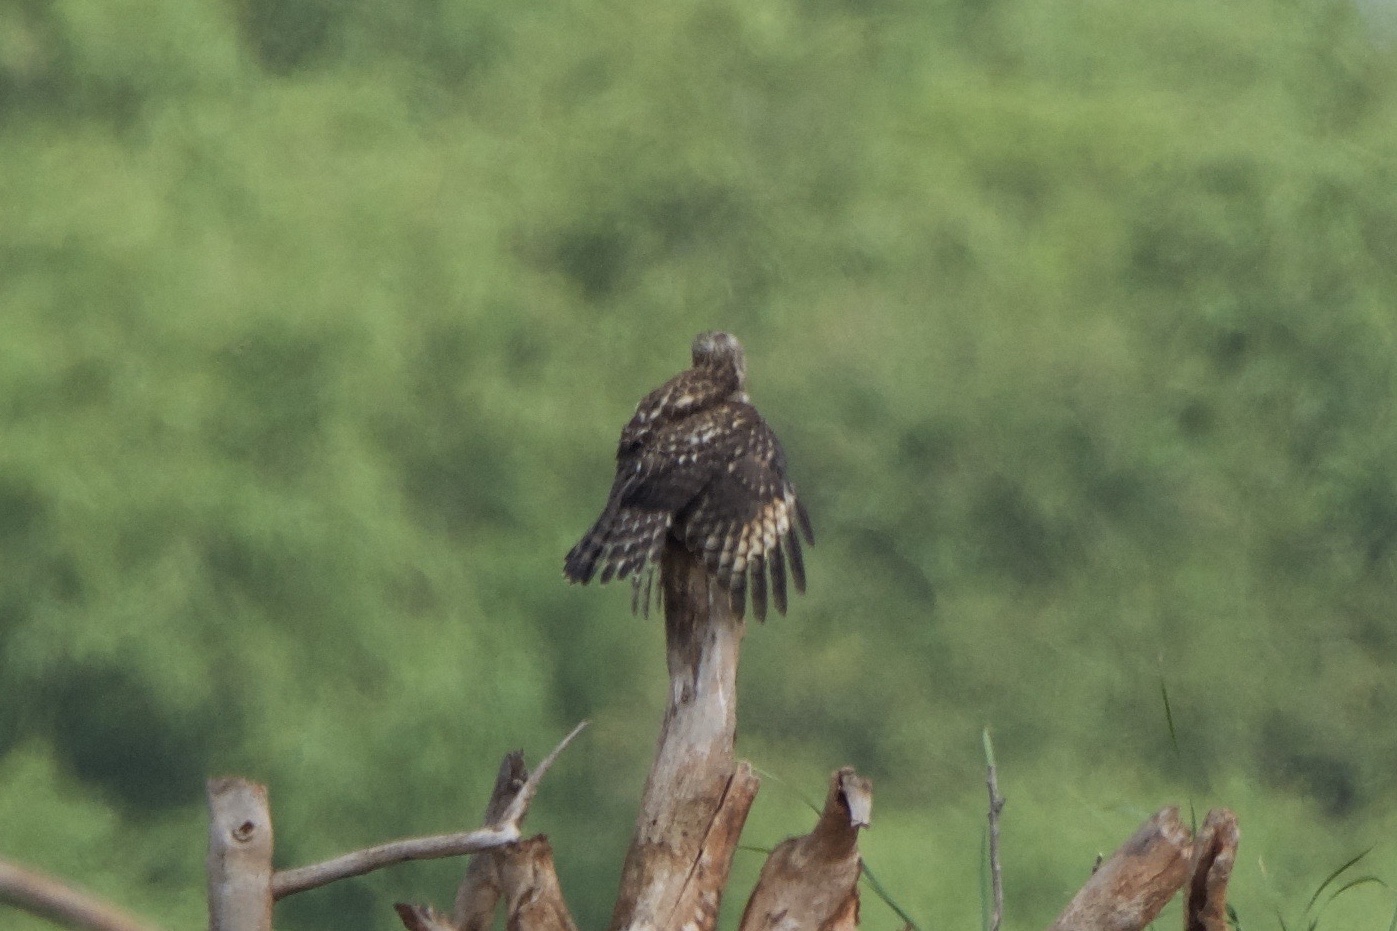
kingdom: Animalia
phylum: Chordata
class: Aves
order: Accipitriformes
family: Accipitridae
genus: Buteo
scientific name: Buteo lineatus
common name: Red-shouldered hawk
